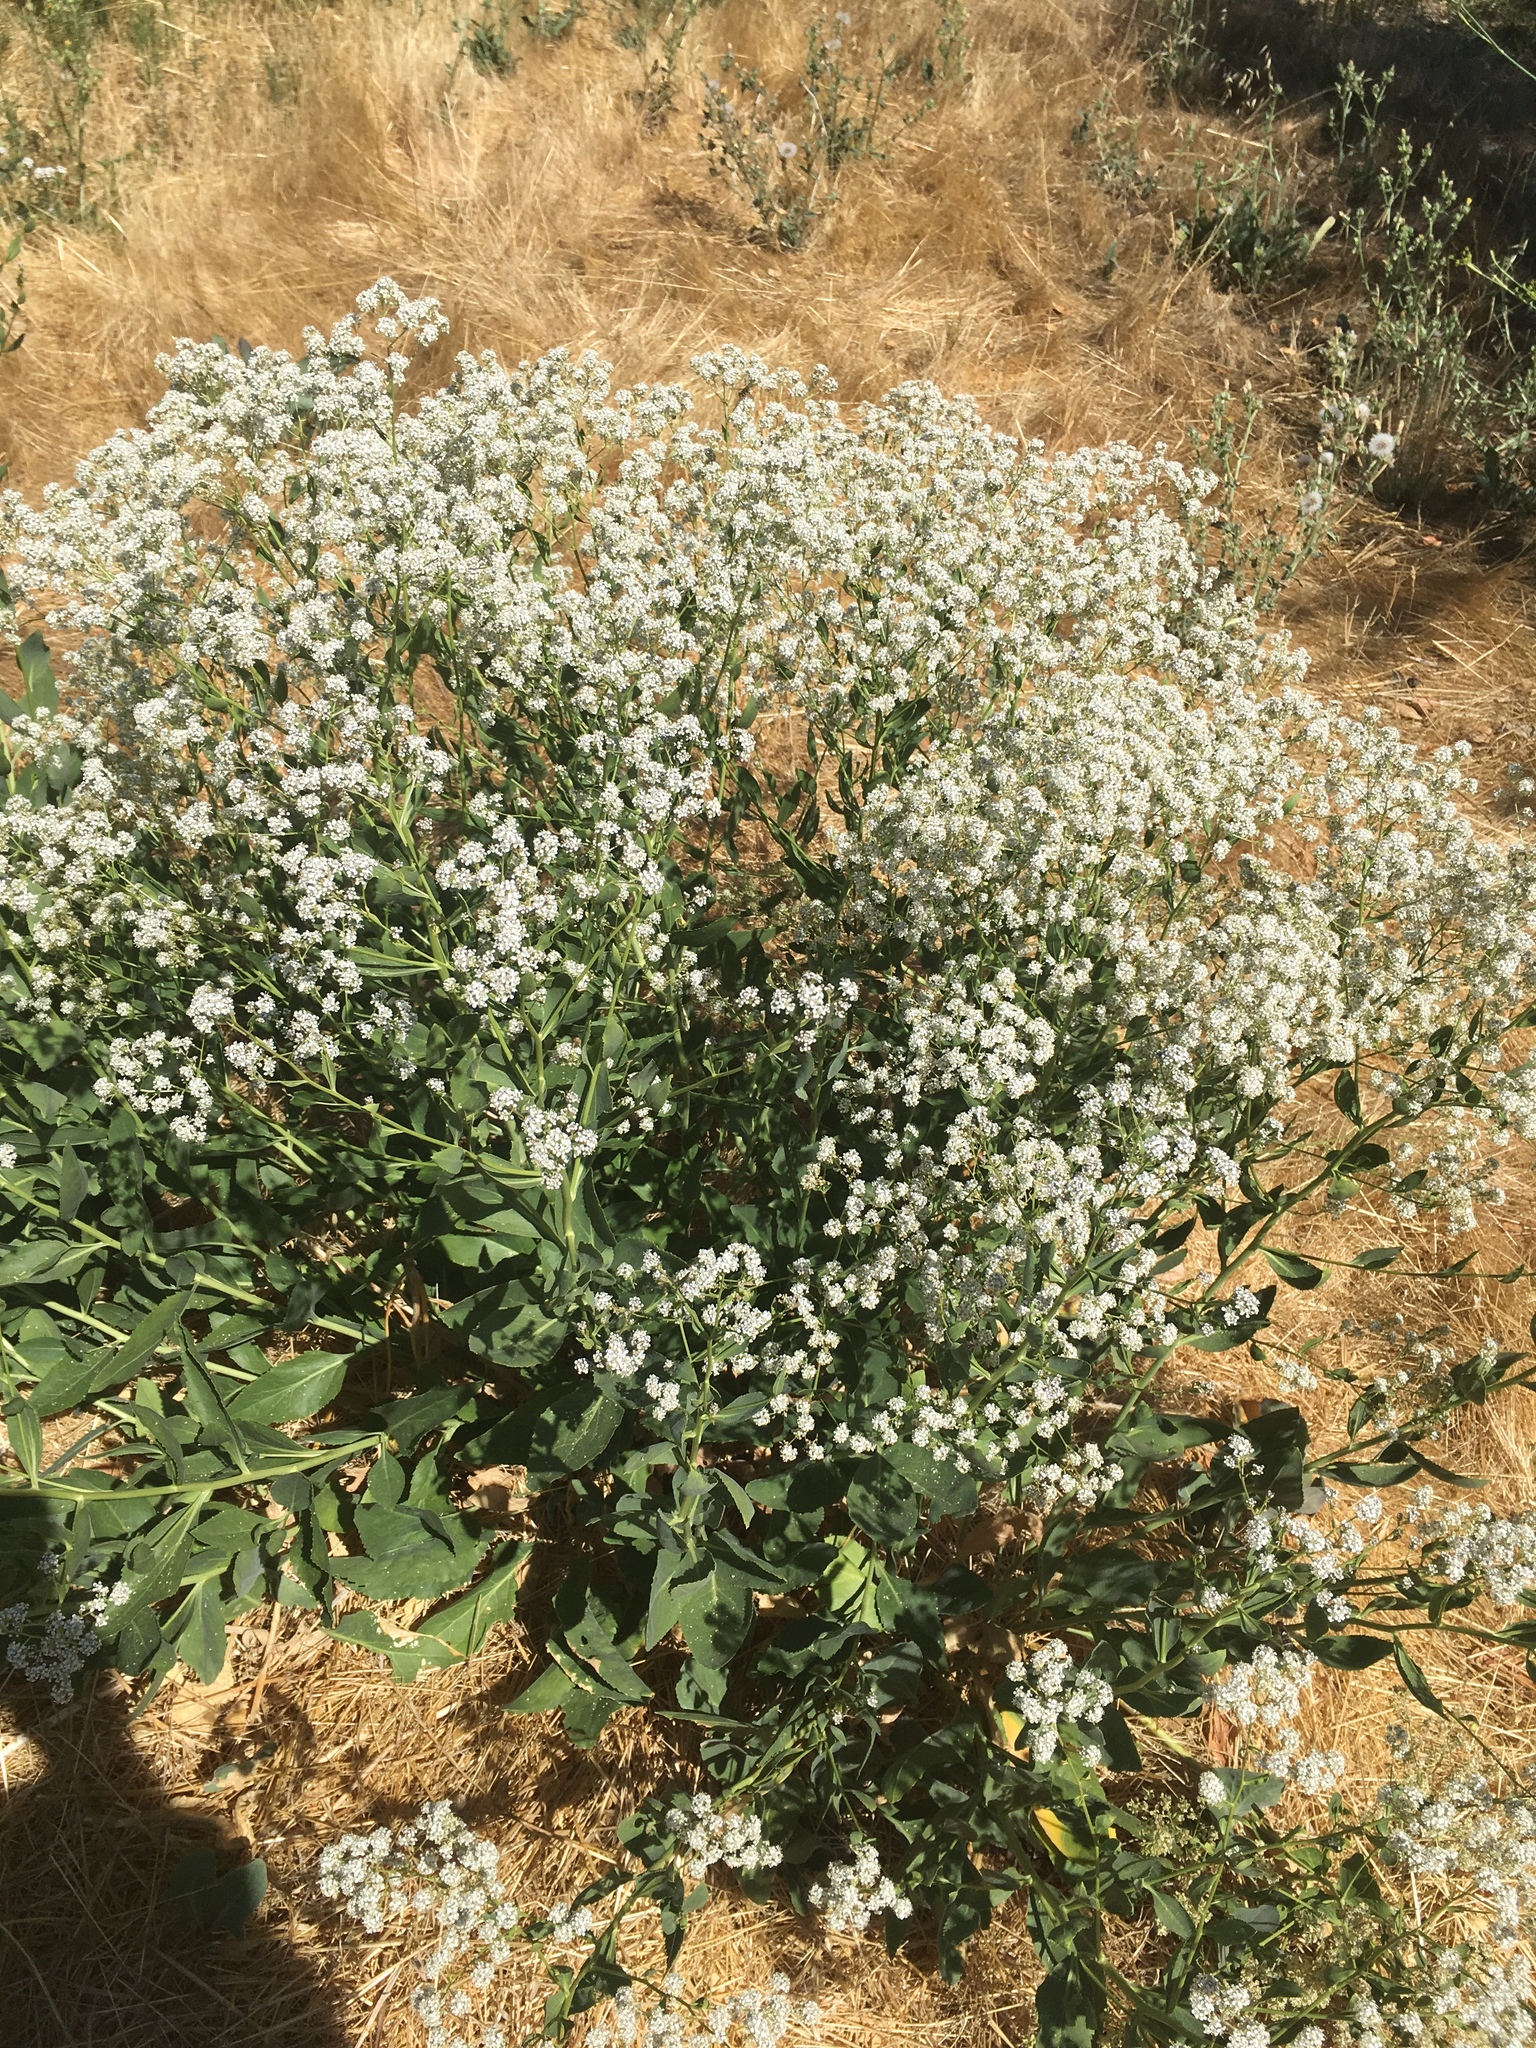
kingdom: Plantae
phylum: Tracheophyta
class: Magnoliopsida
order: Brassicales
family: Brassicaceae
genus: Lepidium
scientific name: Lepidium latifolium
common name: Dittander
